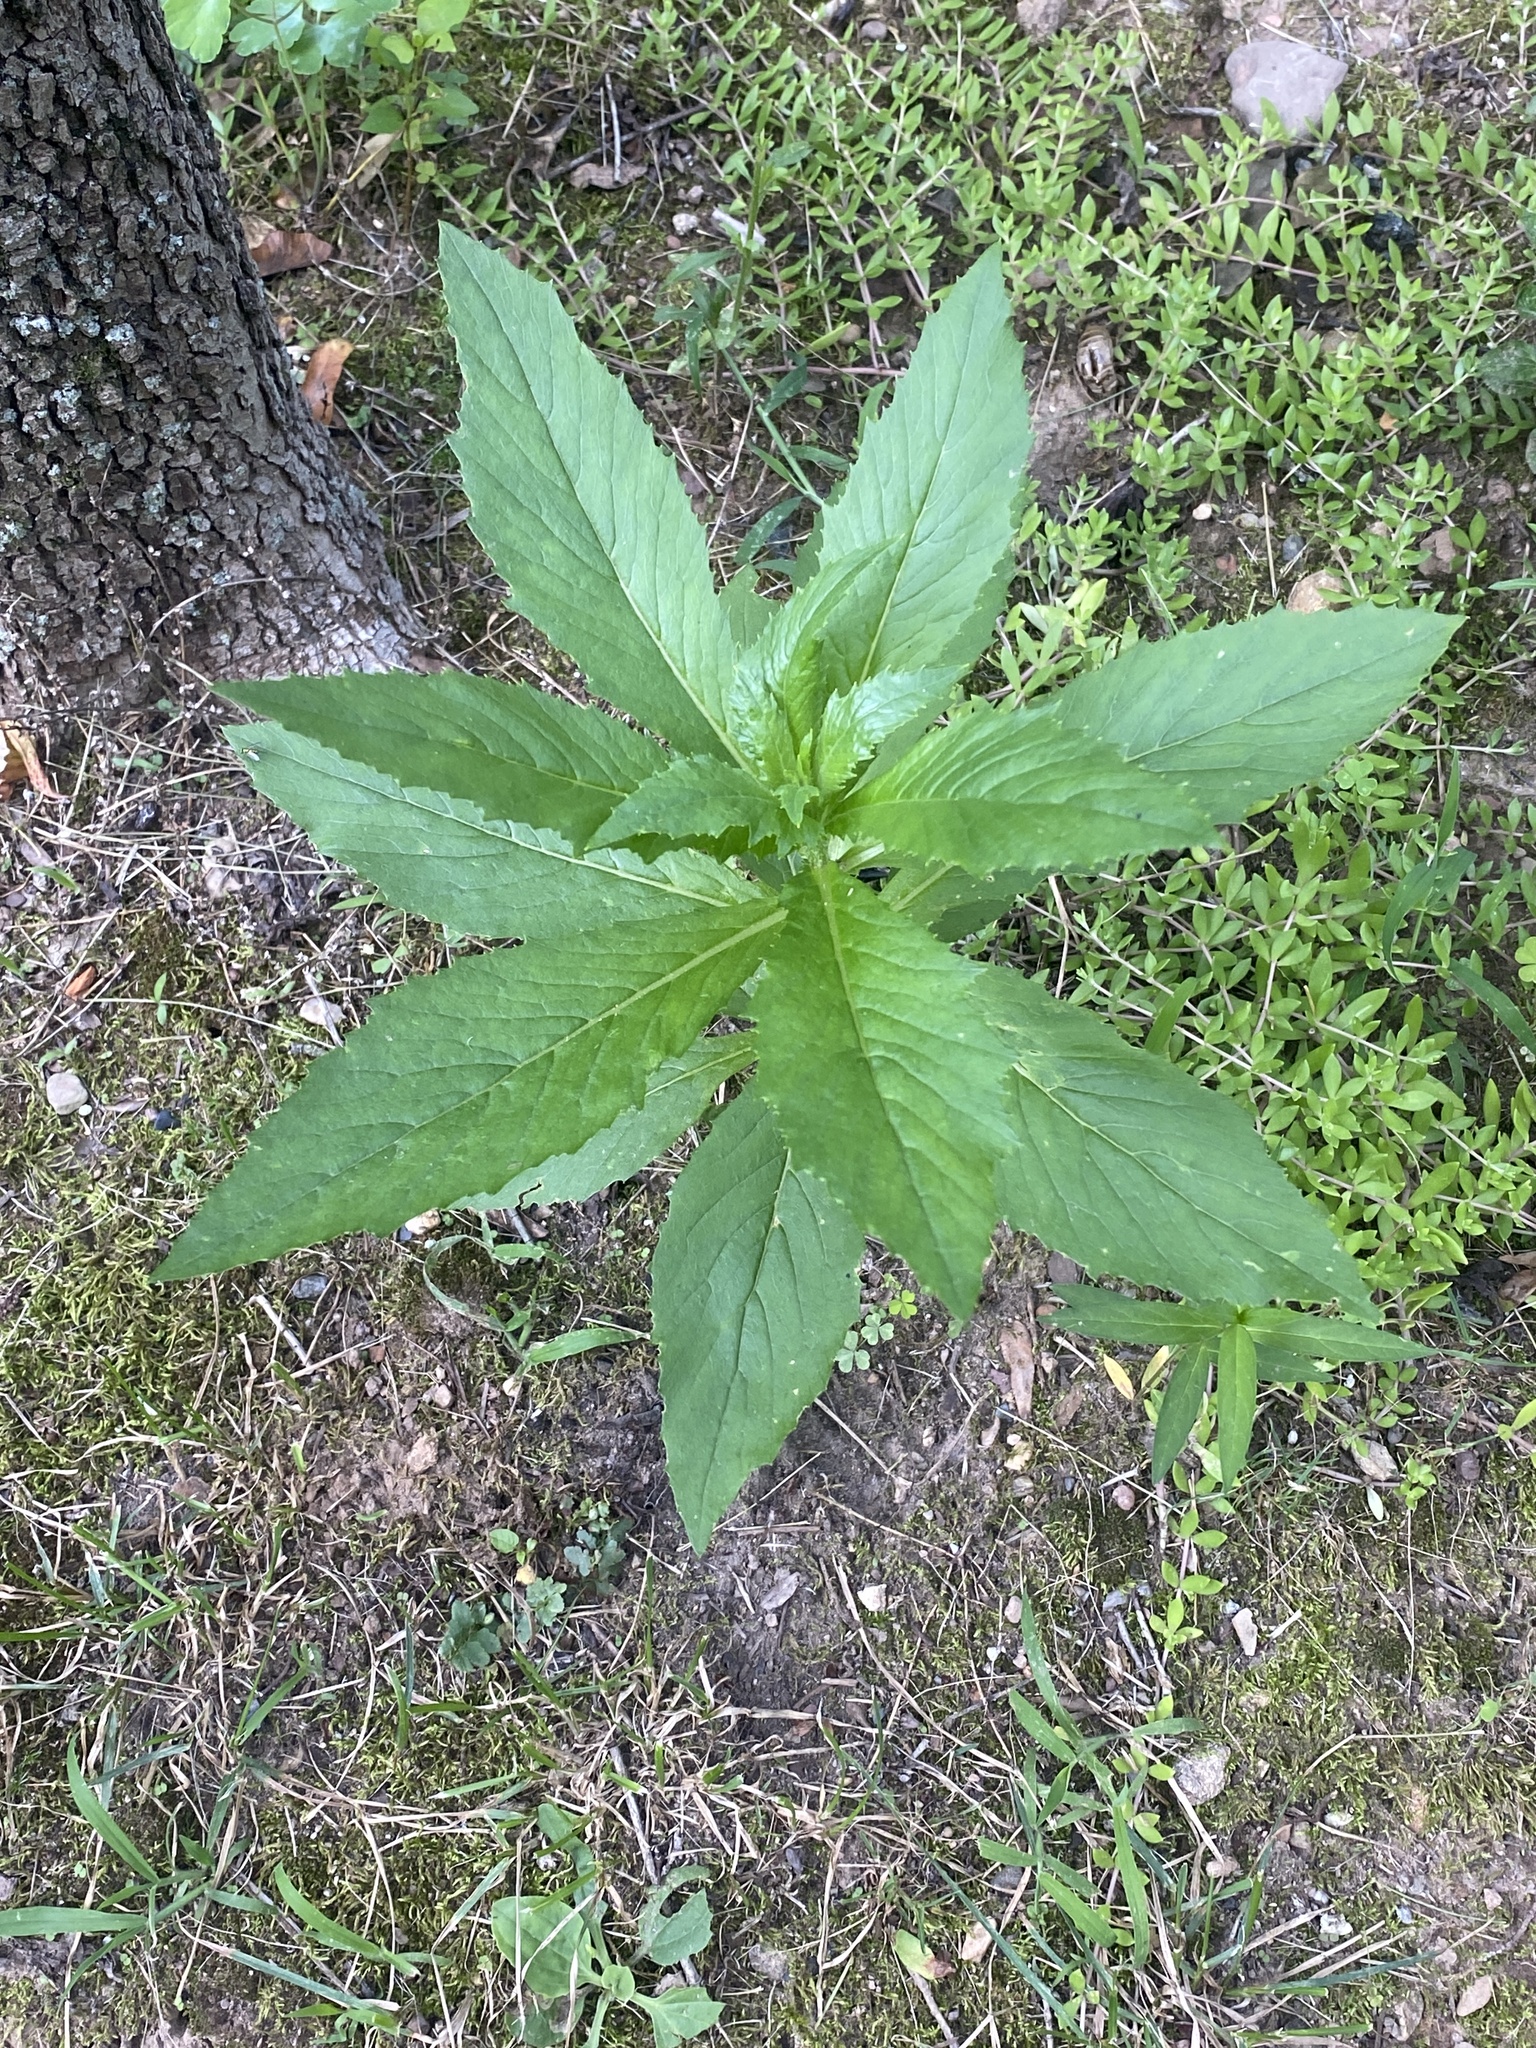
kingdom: Plantae
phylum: Tracheophyta
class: Magnoliopsida
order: Asterales
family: Asteraceae
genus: Erechtites
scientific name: Erechtites hieraciifolius
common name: American burnweed
